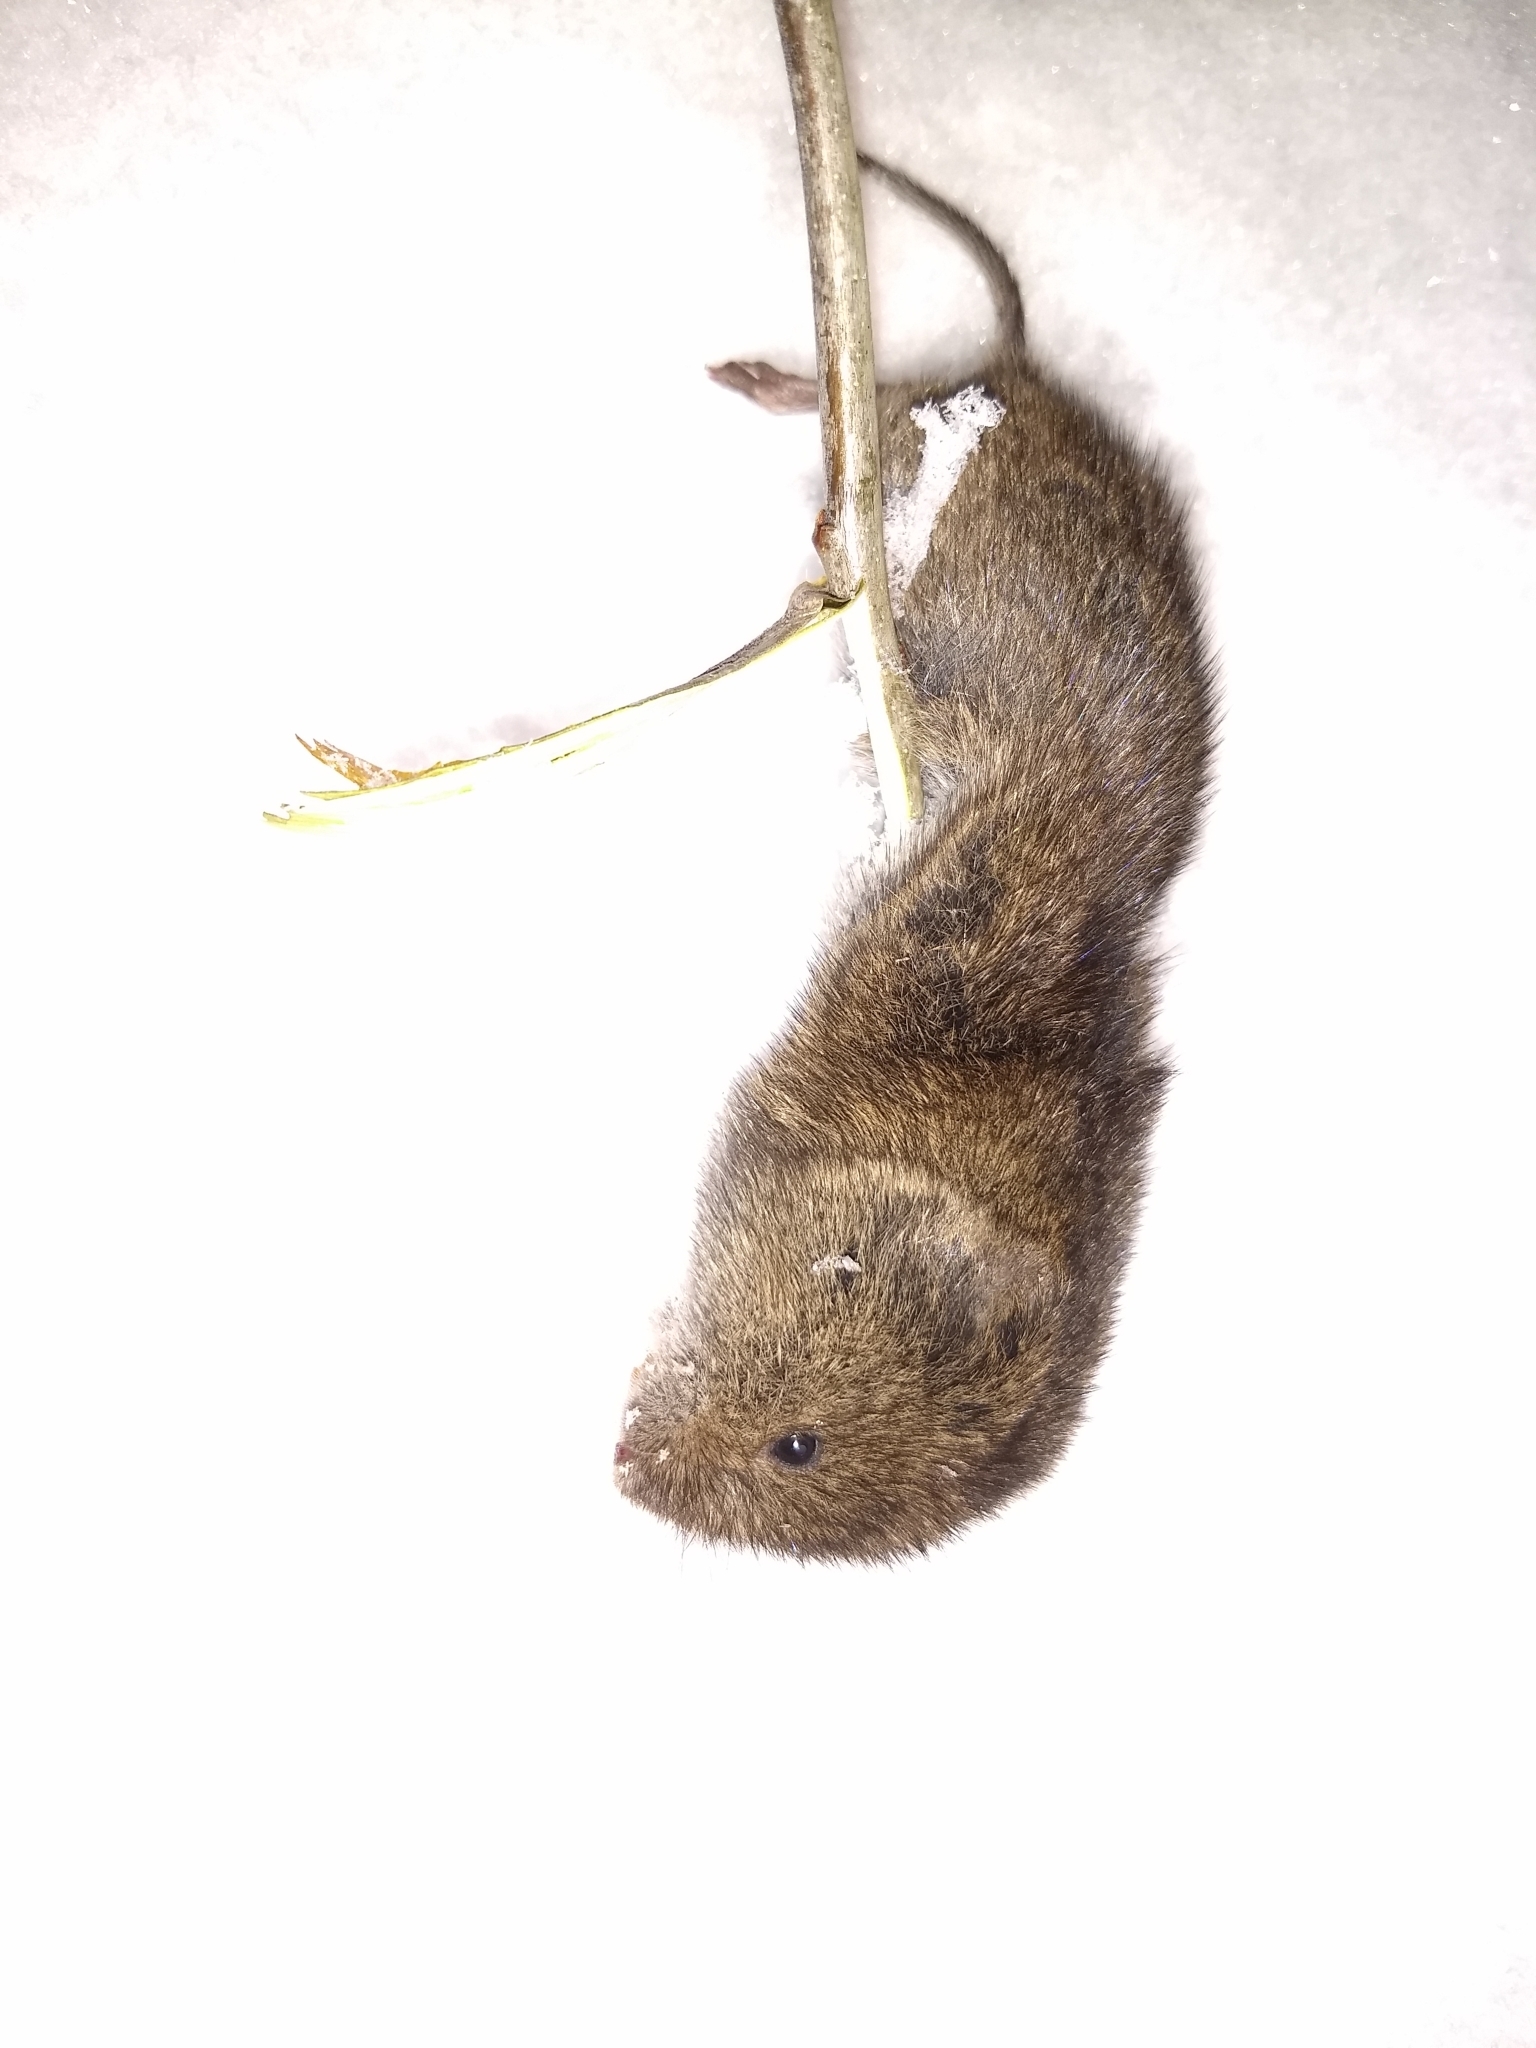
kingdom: Animalia
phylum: Chordata
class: Mammalia
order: Rodentia
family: Cricetidae
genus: Microtus
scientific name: Microtus pennsylvanicus
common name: Meadow vole
